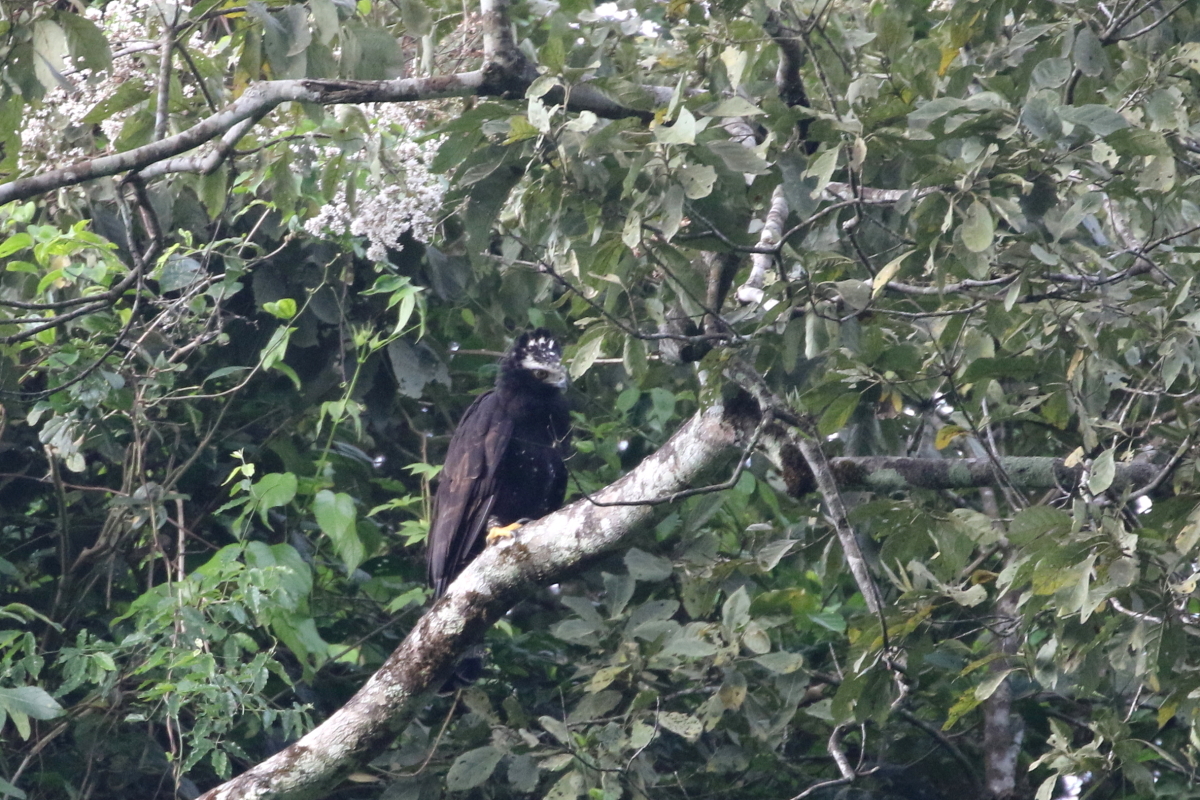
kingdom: Animalia
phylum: Chordata
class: Aves
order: Accipitriformes
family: Accipitridae
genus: Spizaetus
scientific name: Spizaetus tyrannus
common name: Black hawk-eagle
